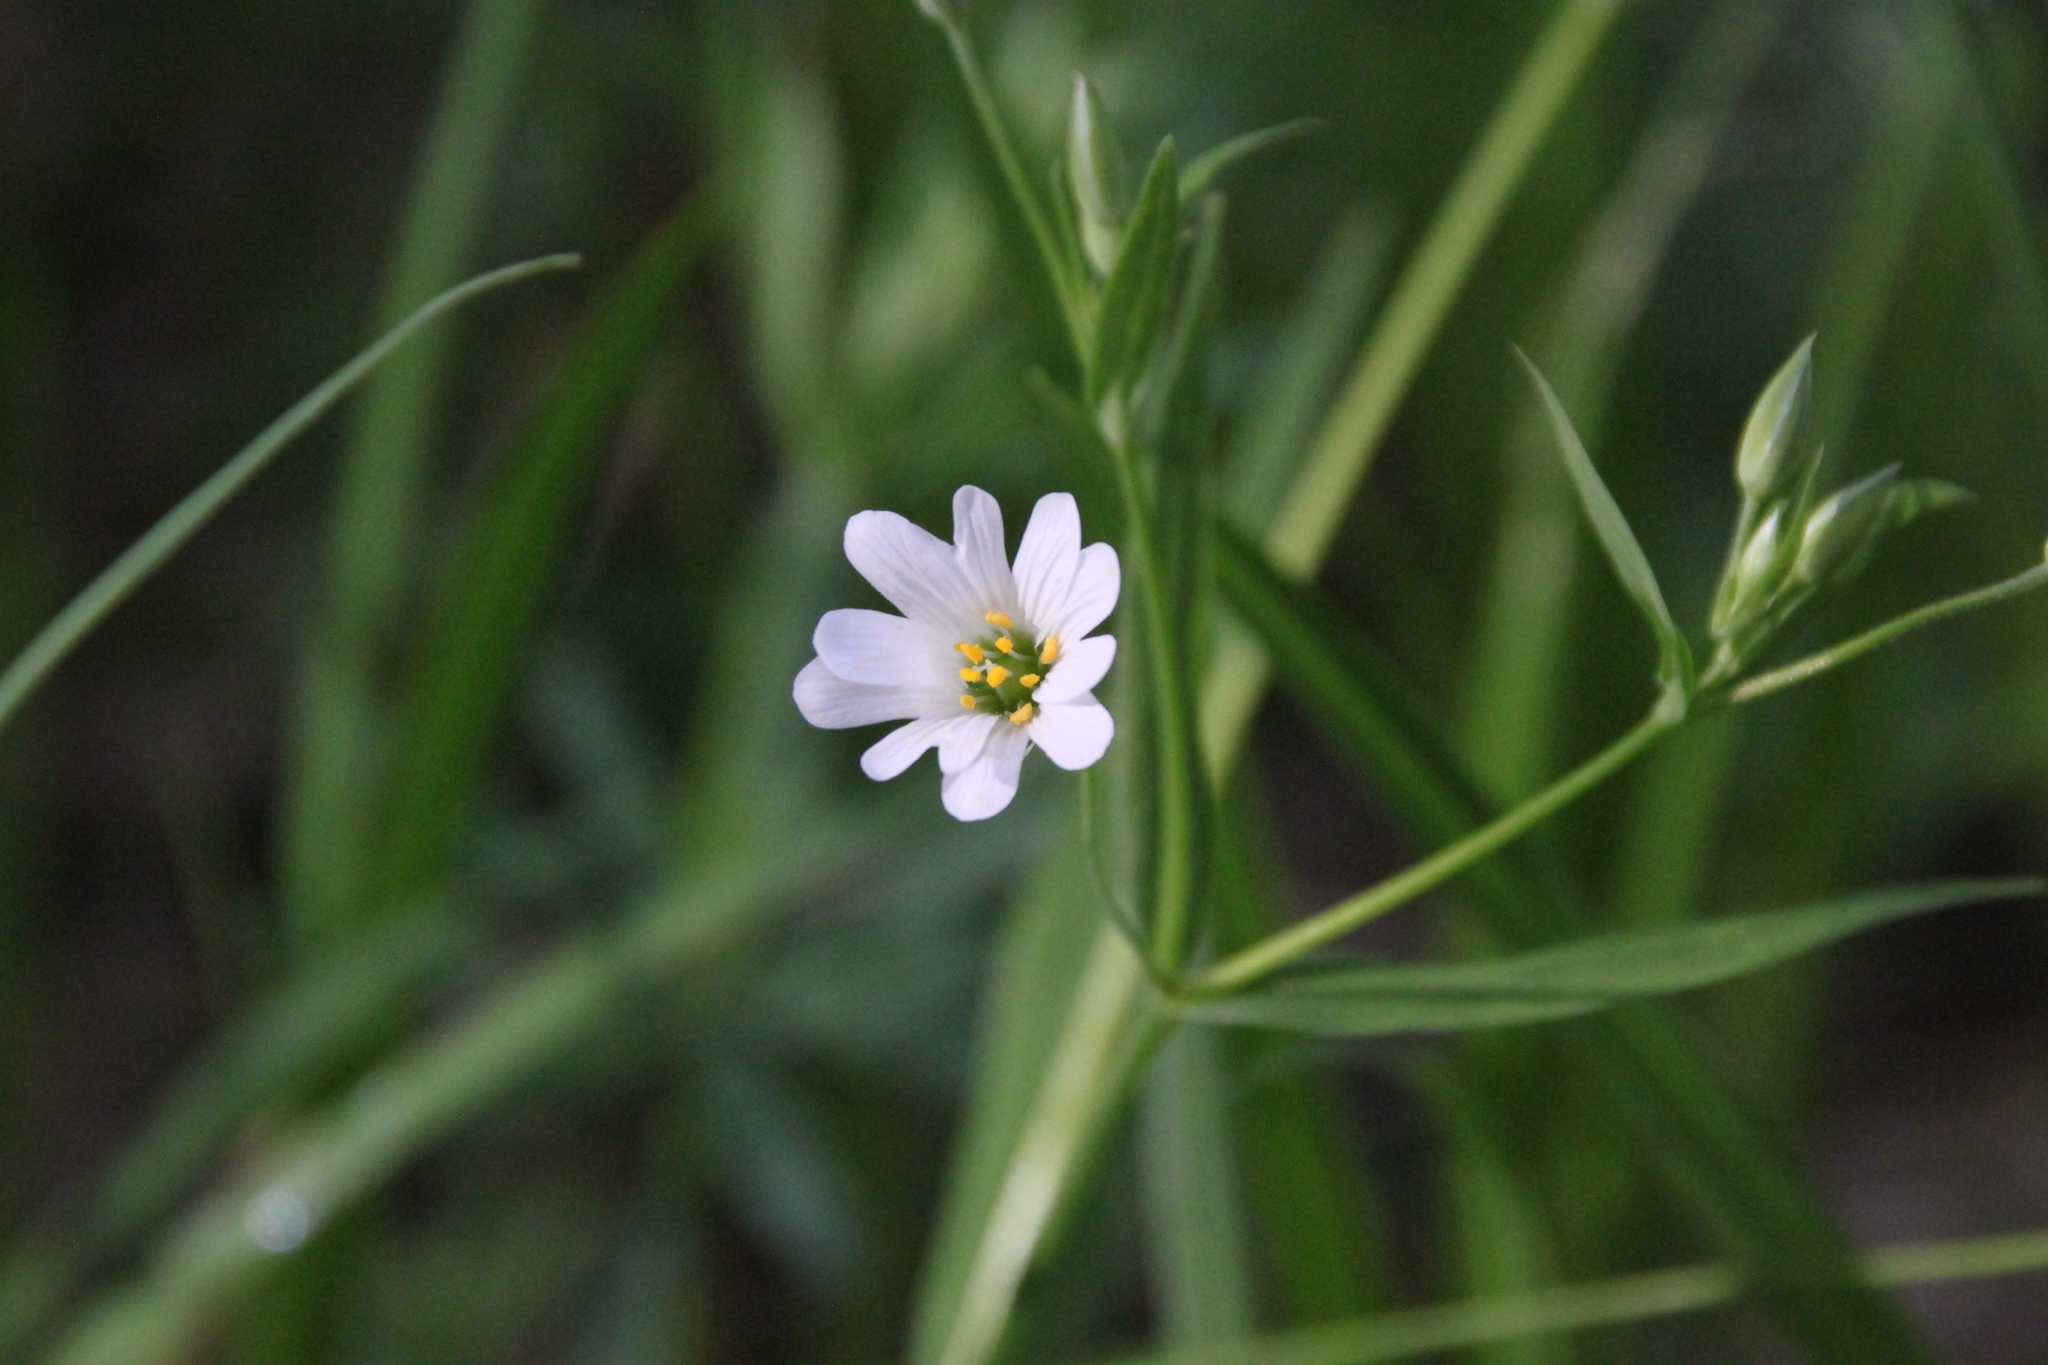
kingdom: Plantae
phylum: Tracheophyta
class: Magnoliopsida
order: Caryophyllales
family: Caryophyllaceae
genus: Rabelera
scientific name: Rabelera holostea
